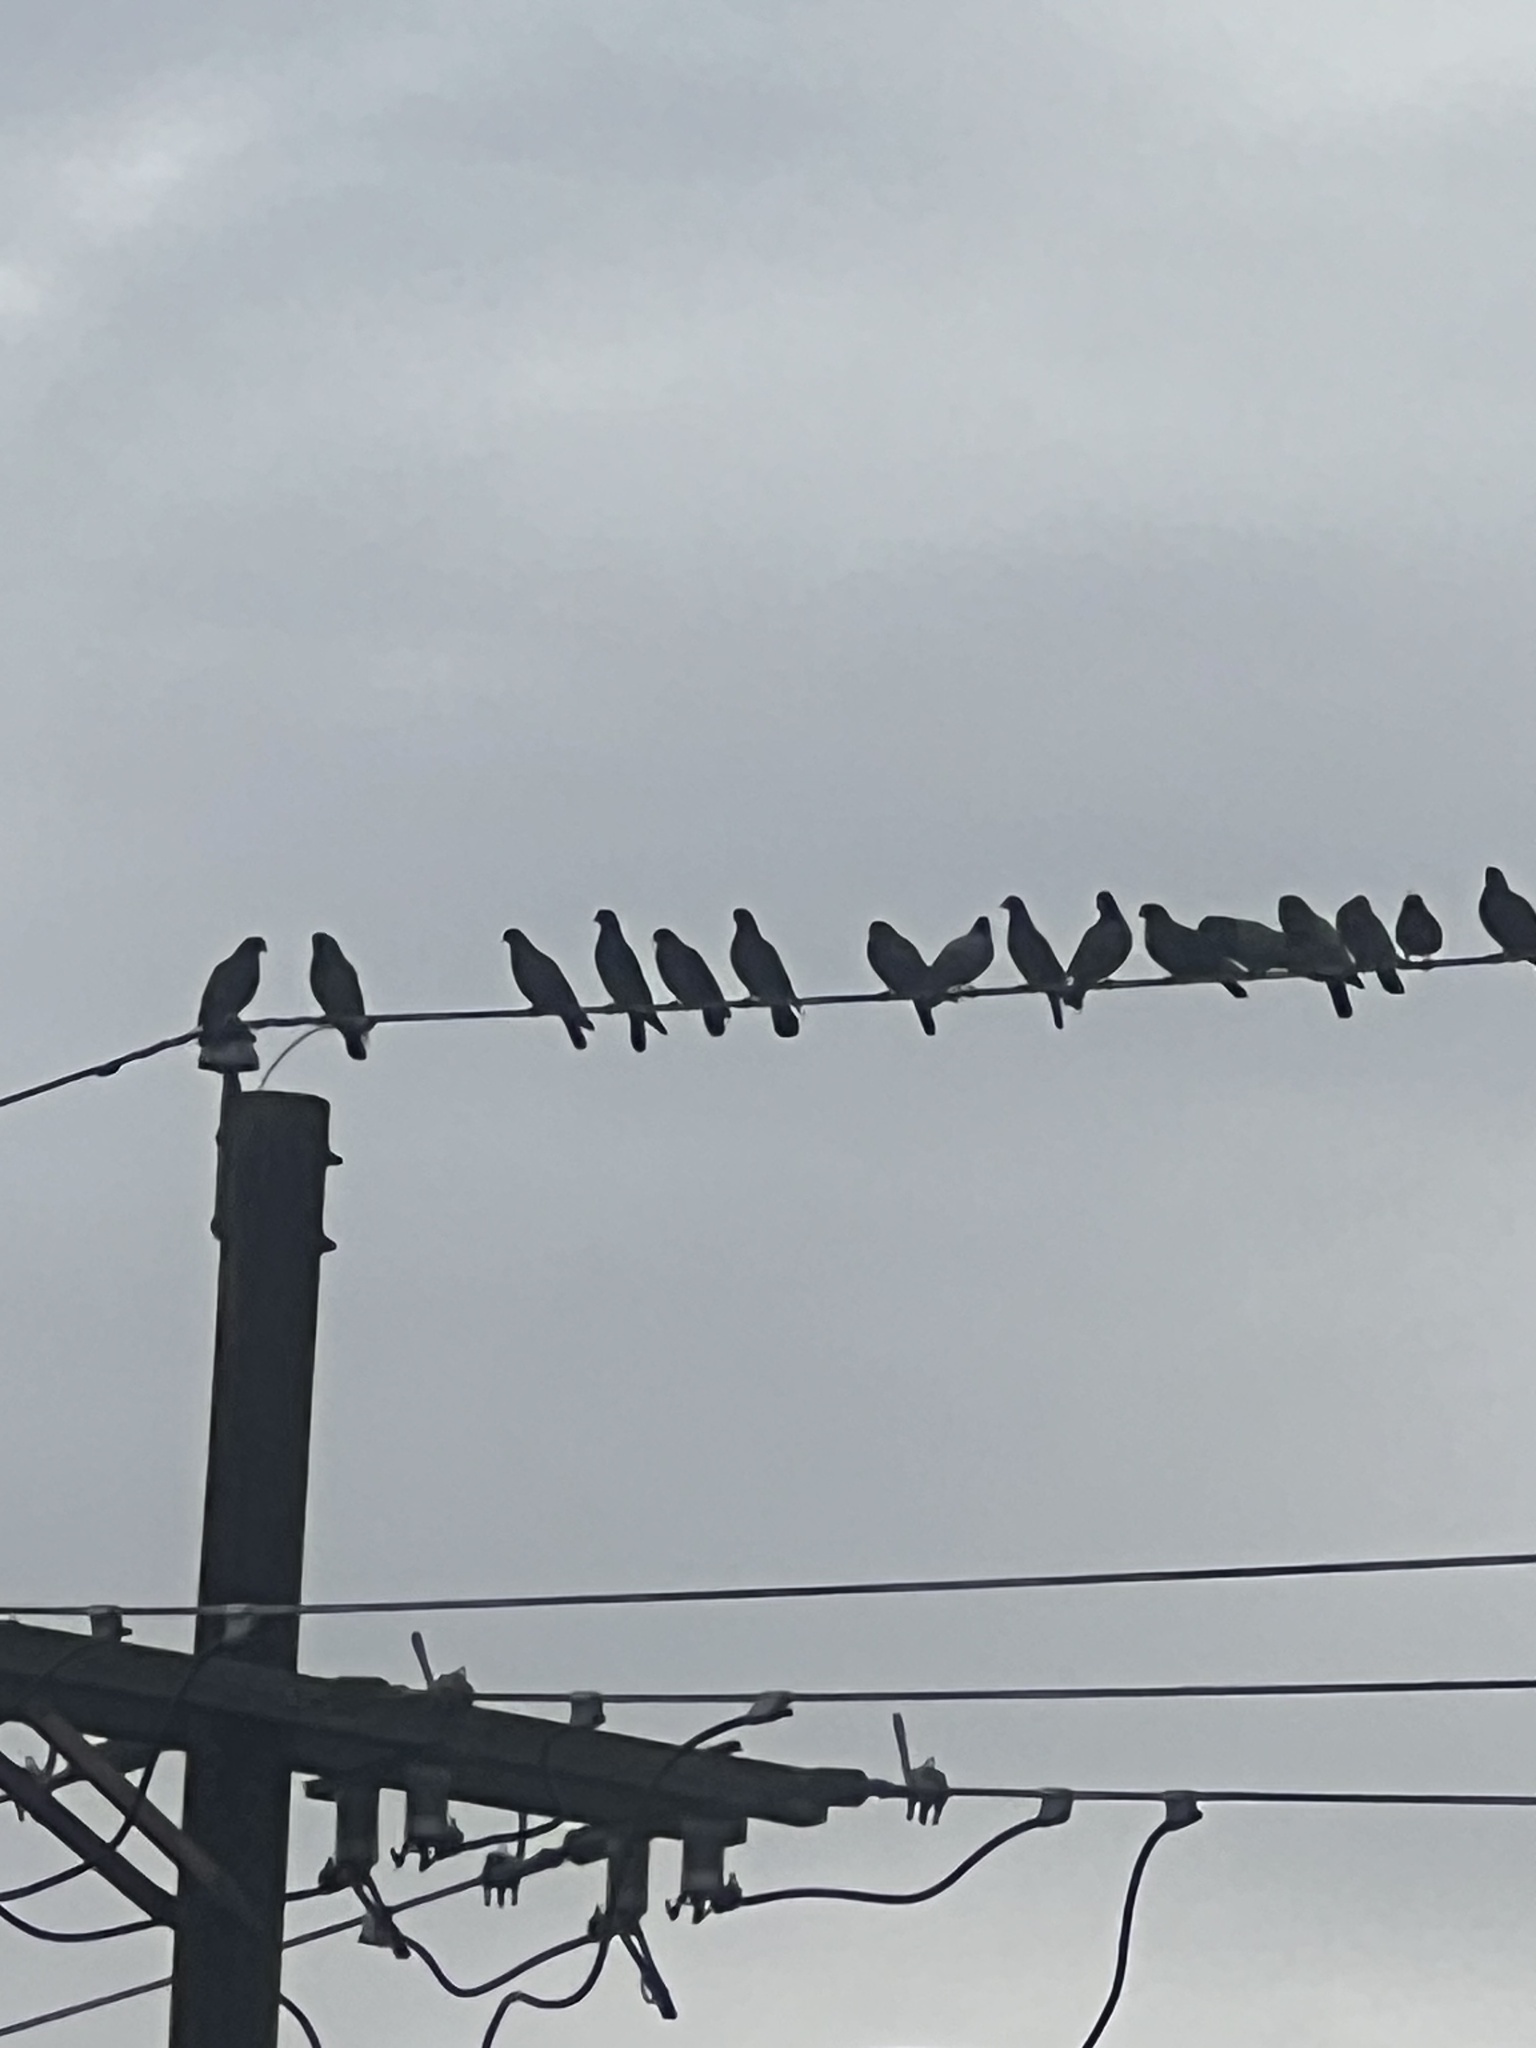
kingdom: Animalia
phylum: Chordata
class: Aves
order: Columbiformes
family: Columbidae
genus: Columba
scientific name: Columba livia
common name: Rock pigeon
